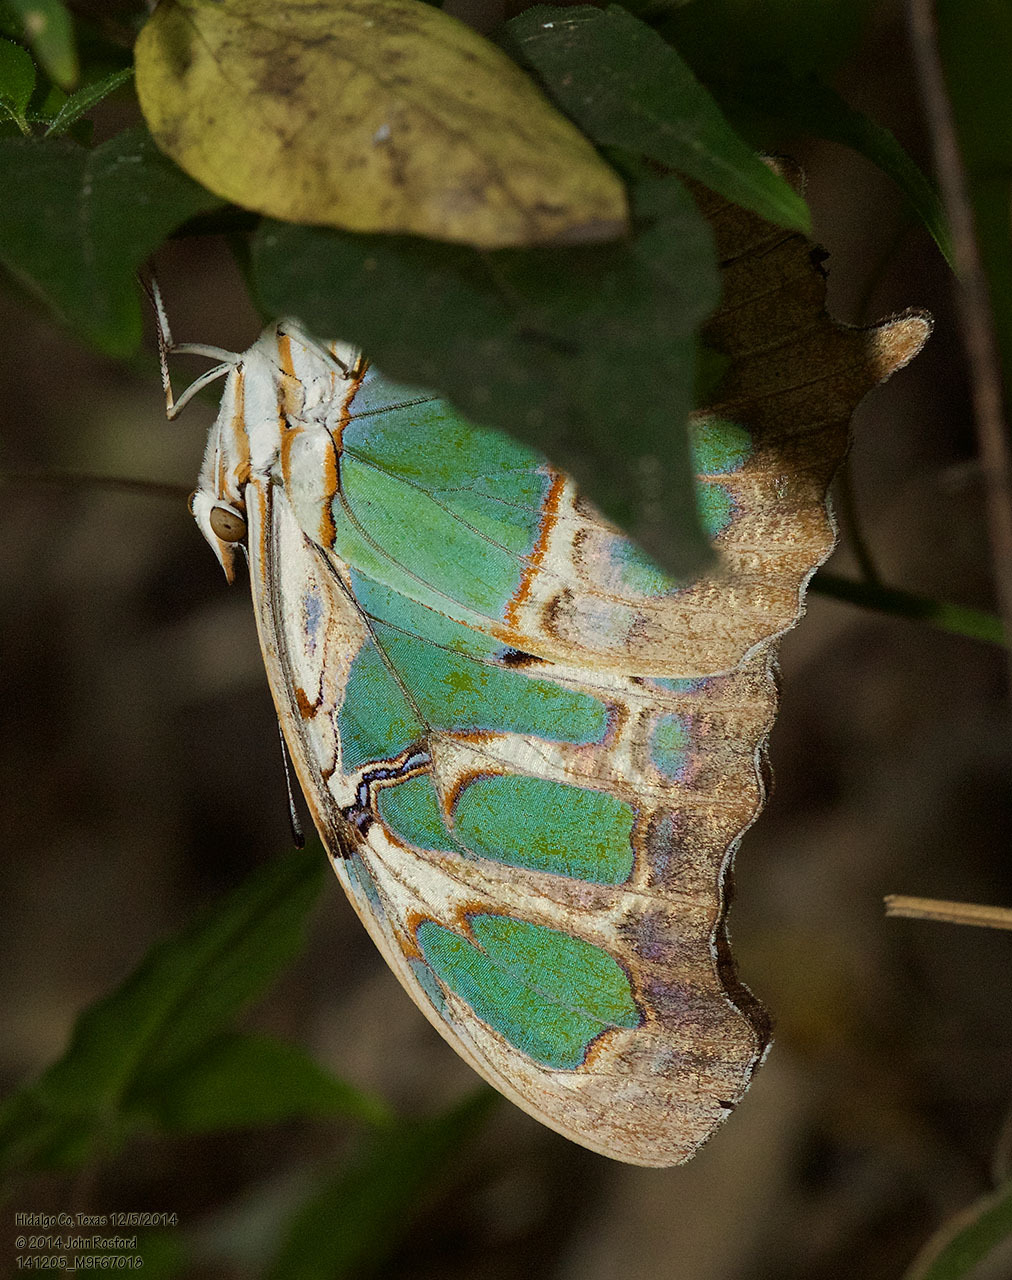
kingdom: Animalia
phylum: Arthropoda
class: Insecta
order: Lepidoptera
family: Nymphalidae
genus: Siproeta
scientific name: Siproeta stelenes
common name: Malachite
